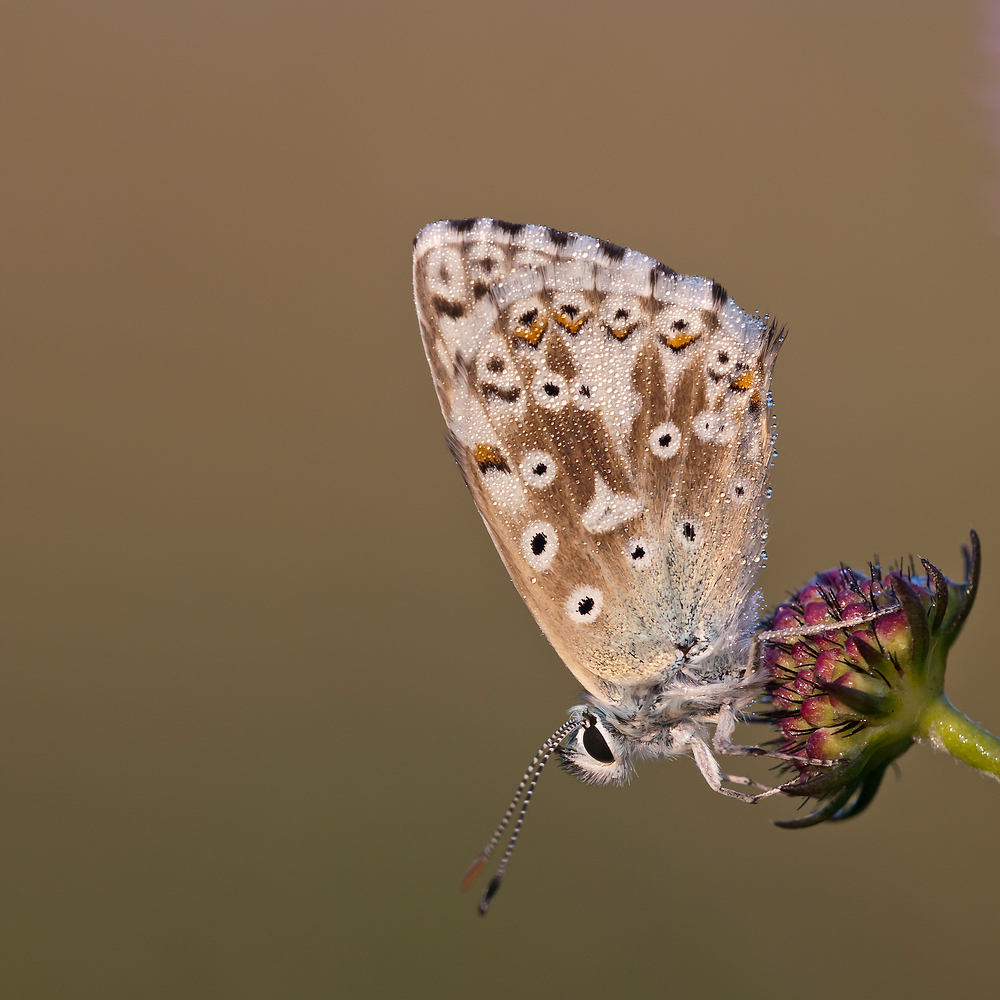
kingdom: Animalia
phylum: Arthropoda
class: Insecta
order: Lepidoptera
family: Lycaenidae
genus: Lysandra
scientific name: Lysandra coridon
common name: Chalkhill blue
